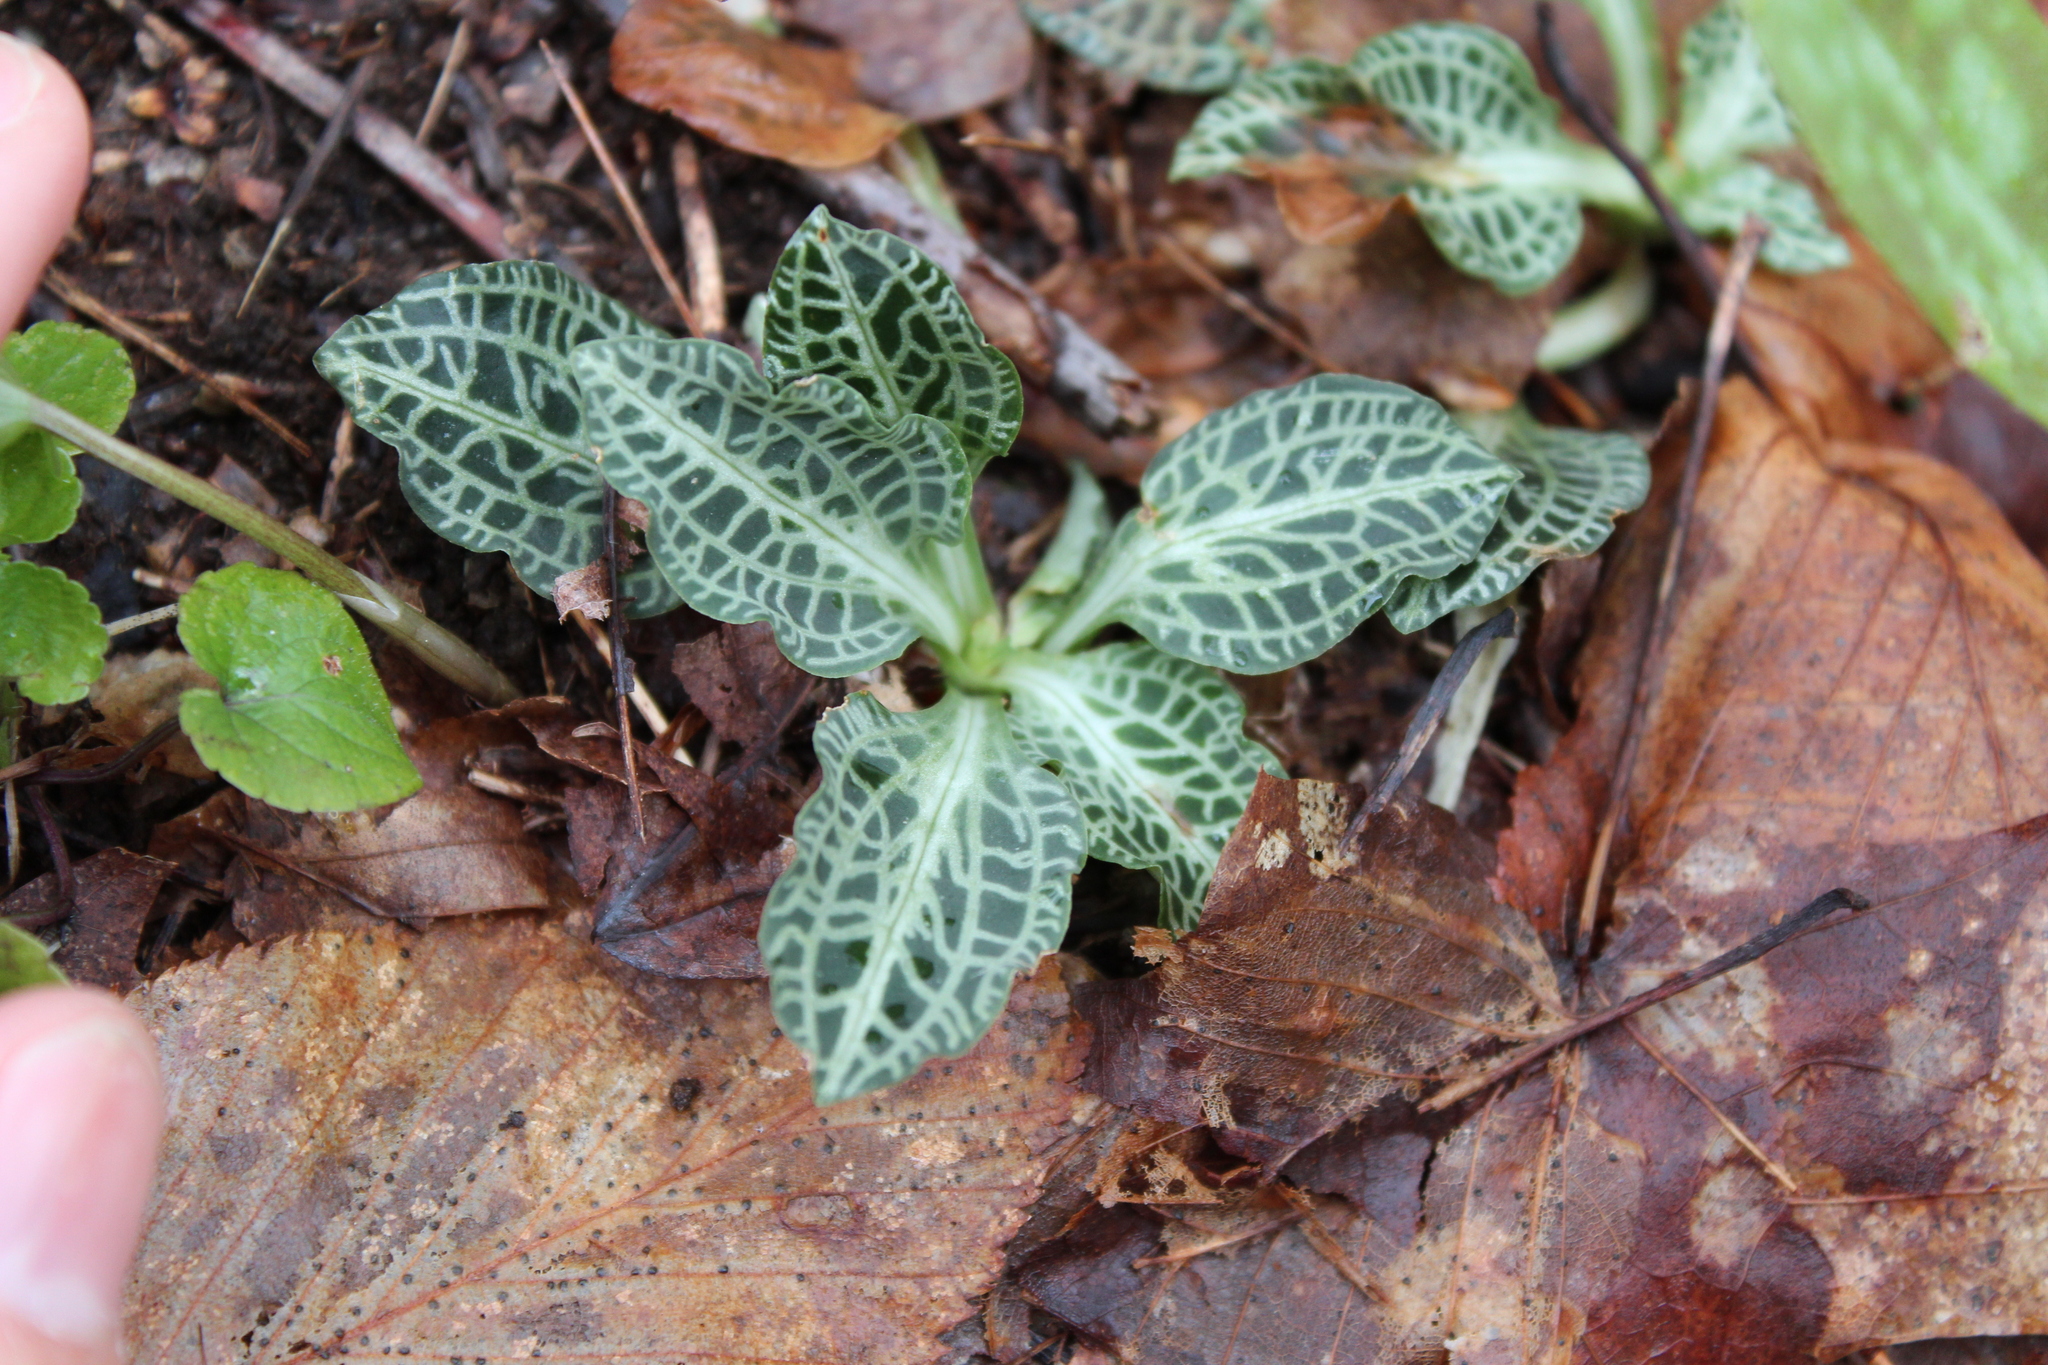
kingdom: Plantae
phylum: Tracheophyta
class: Liliopsida
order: Asparagales
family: Orchidaceae
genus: Goodyera
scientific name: Goodyera pubescens
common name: Downy rattlesnake-plantain
